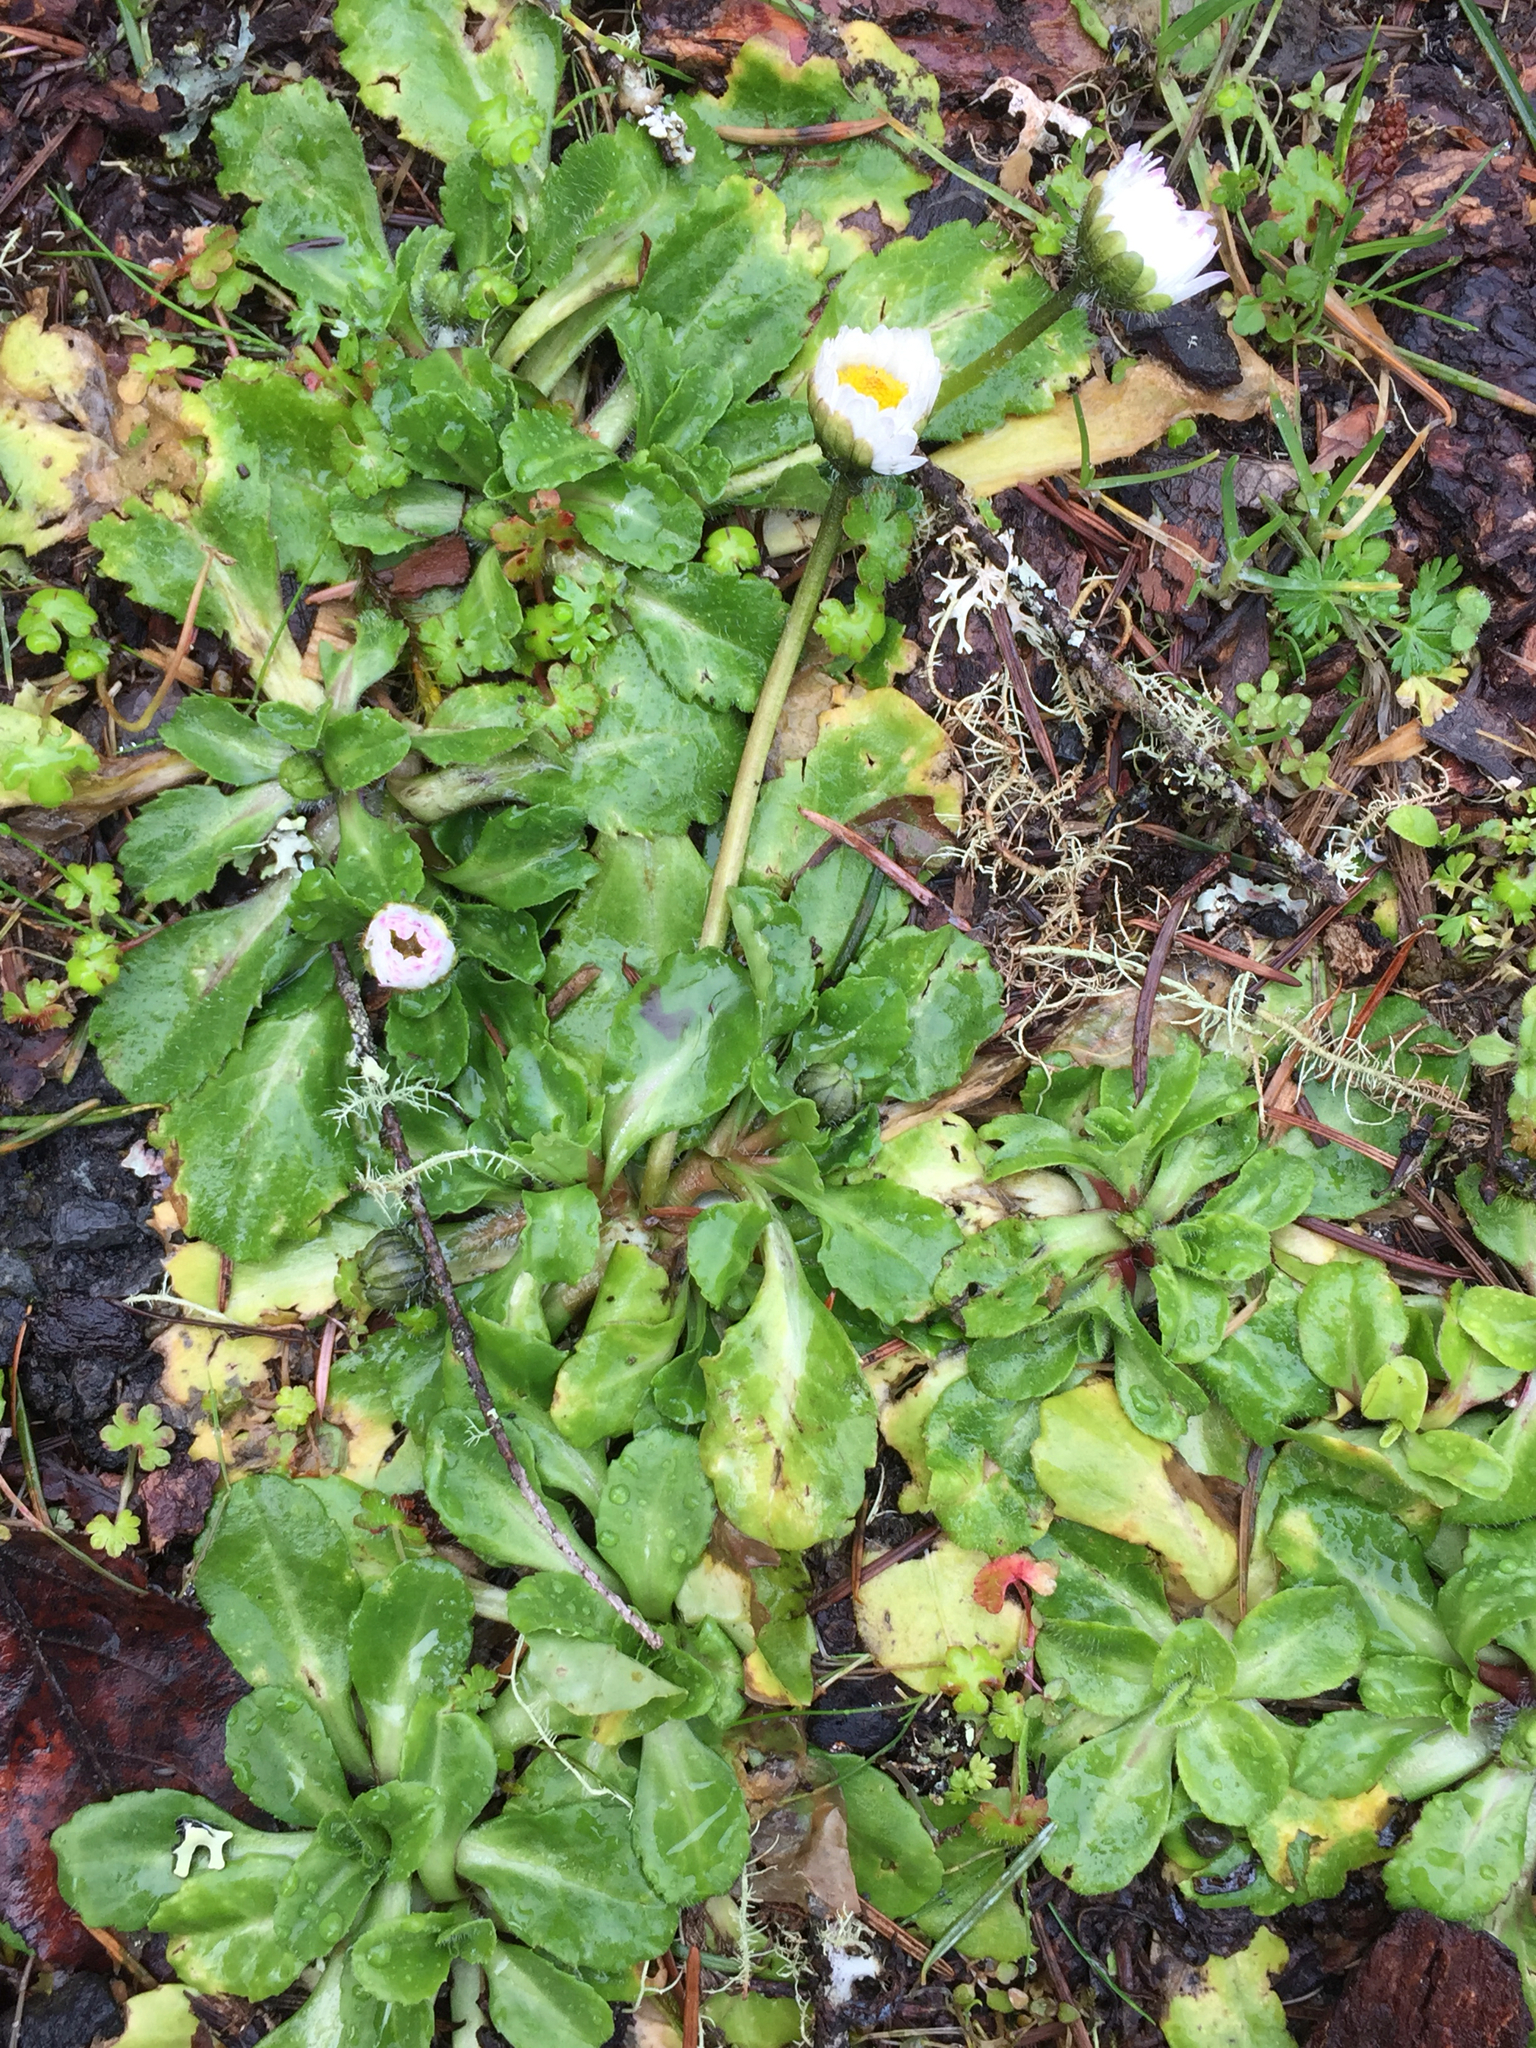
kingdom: Plantae
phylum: Tracheophyta
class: Magnoliopsida
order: Asterales
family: Asteraceae
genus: Bellis
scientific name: Bellis perennis
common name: Lawndaisy
